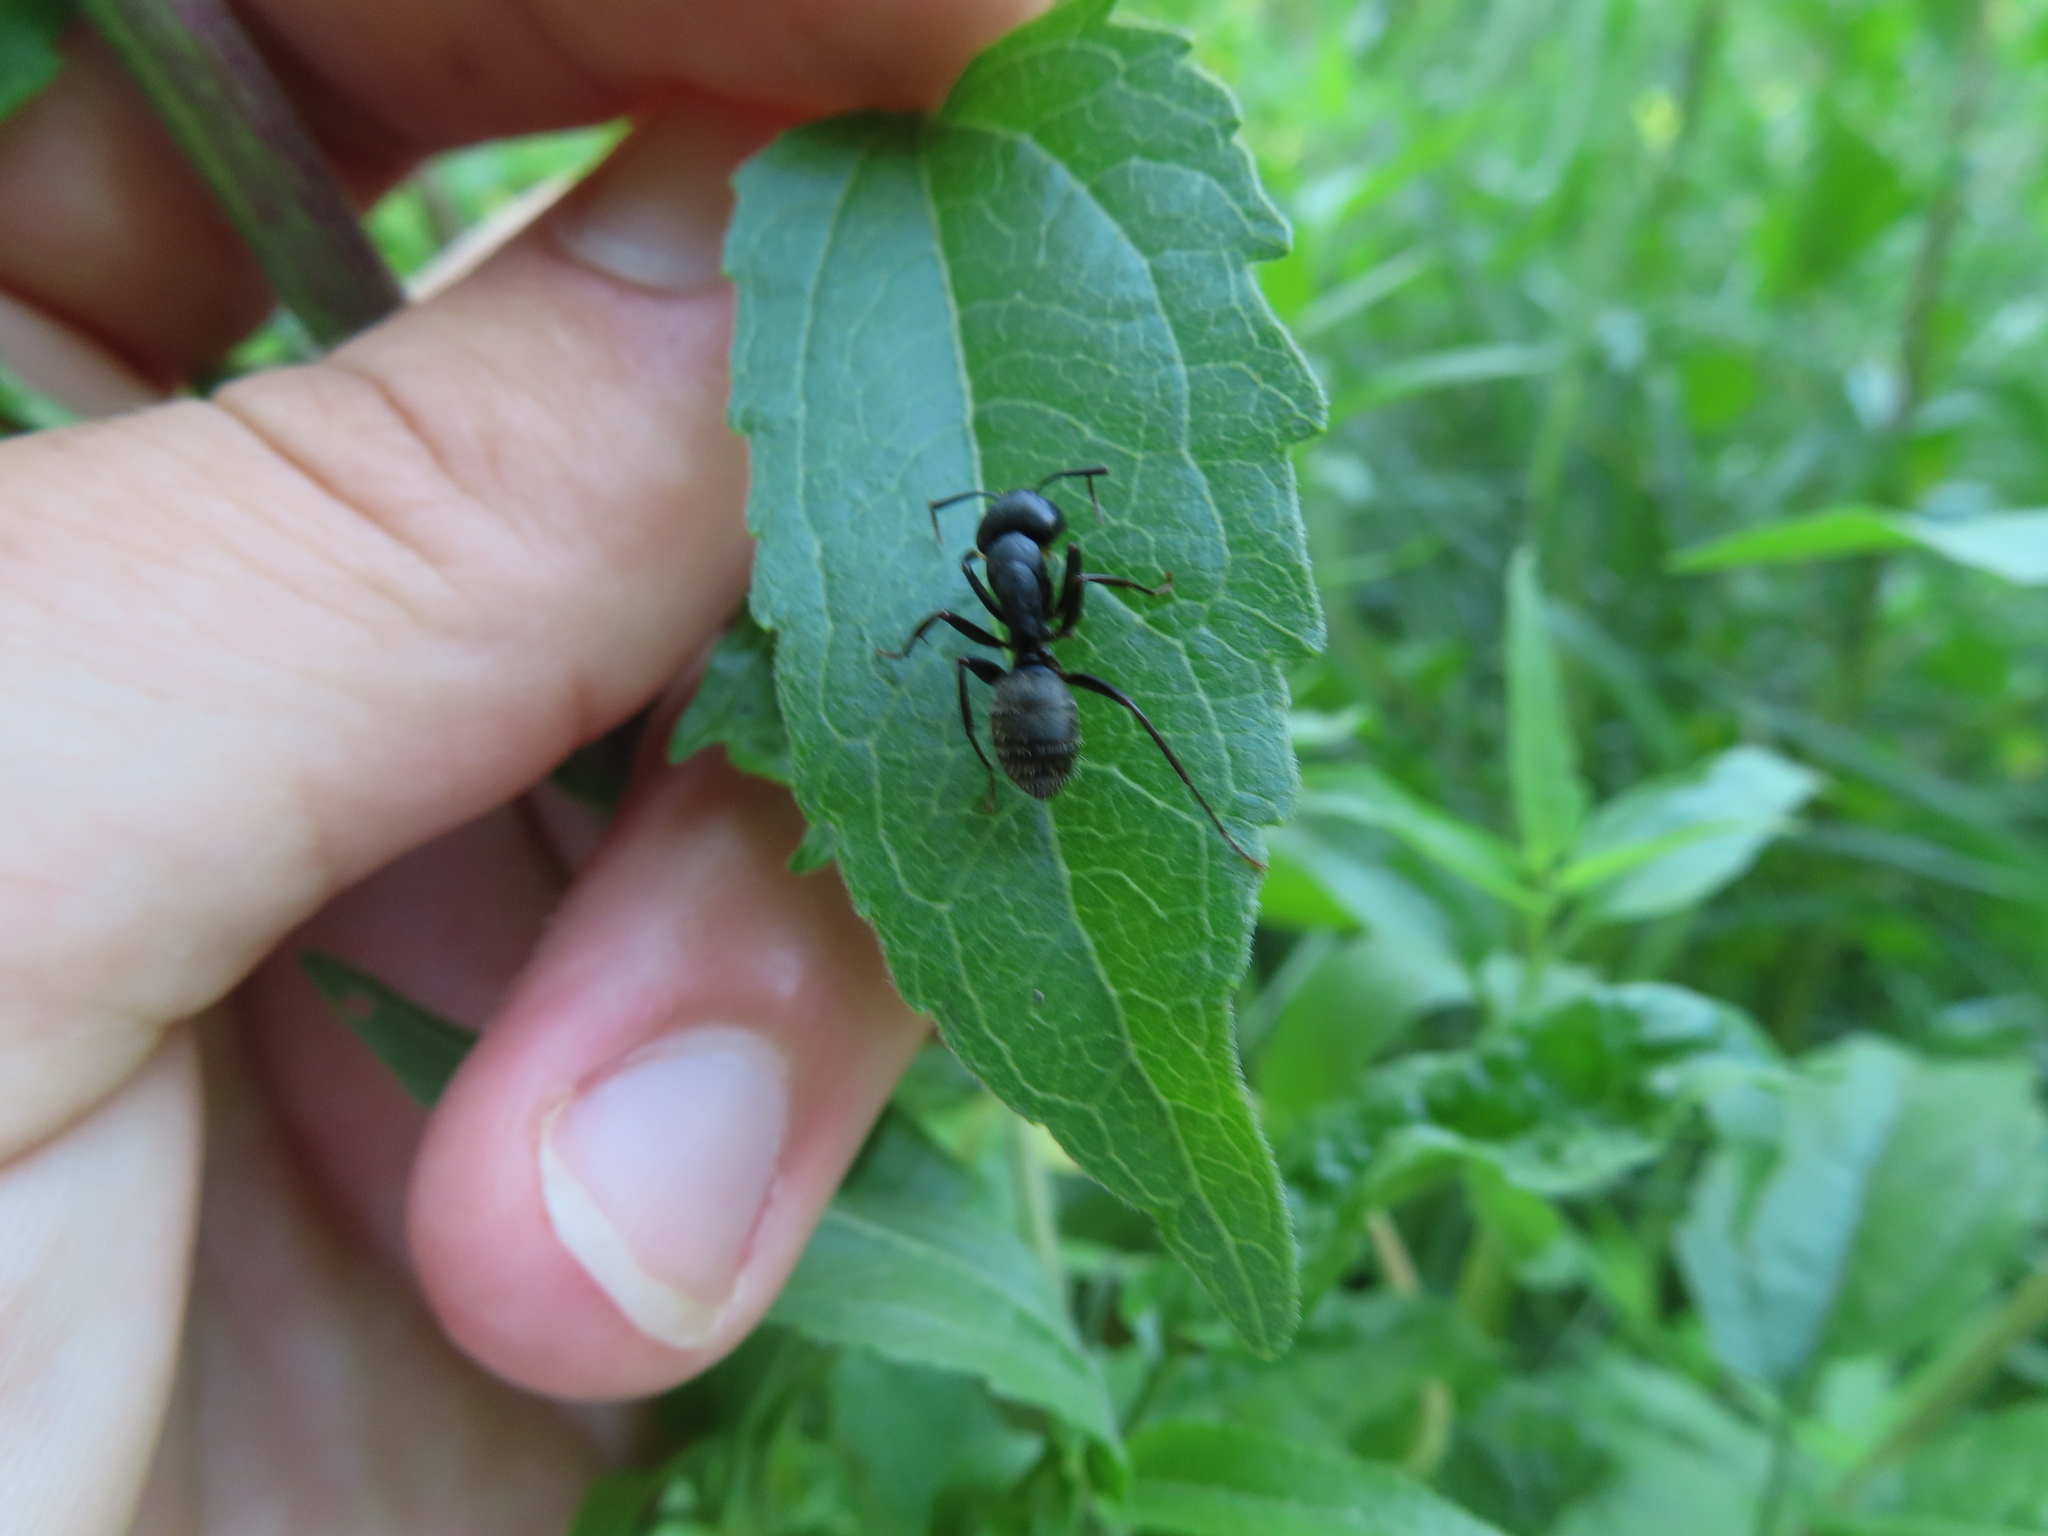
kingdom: Animalia
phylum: Arthropoda
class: Insecta
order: Hymenoptera
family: Formicidae
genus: Camponotus
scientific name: Camponotus pennsylvanicus
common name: Black carpenter ant
